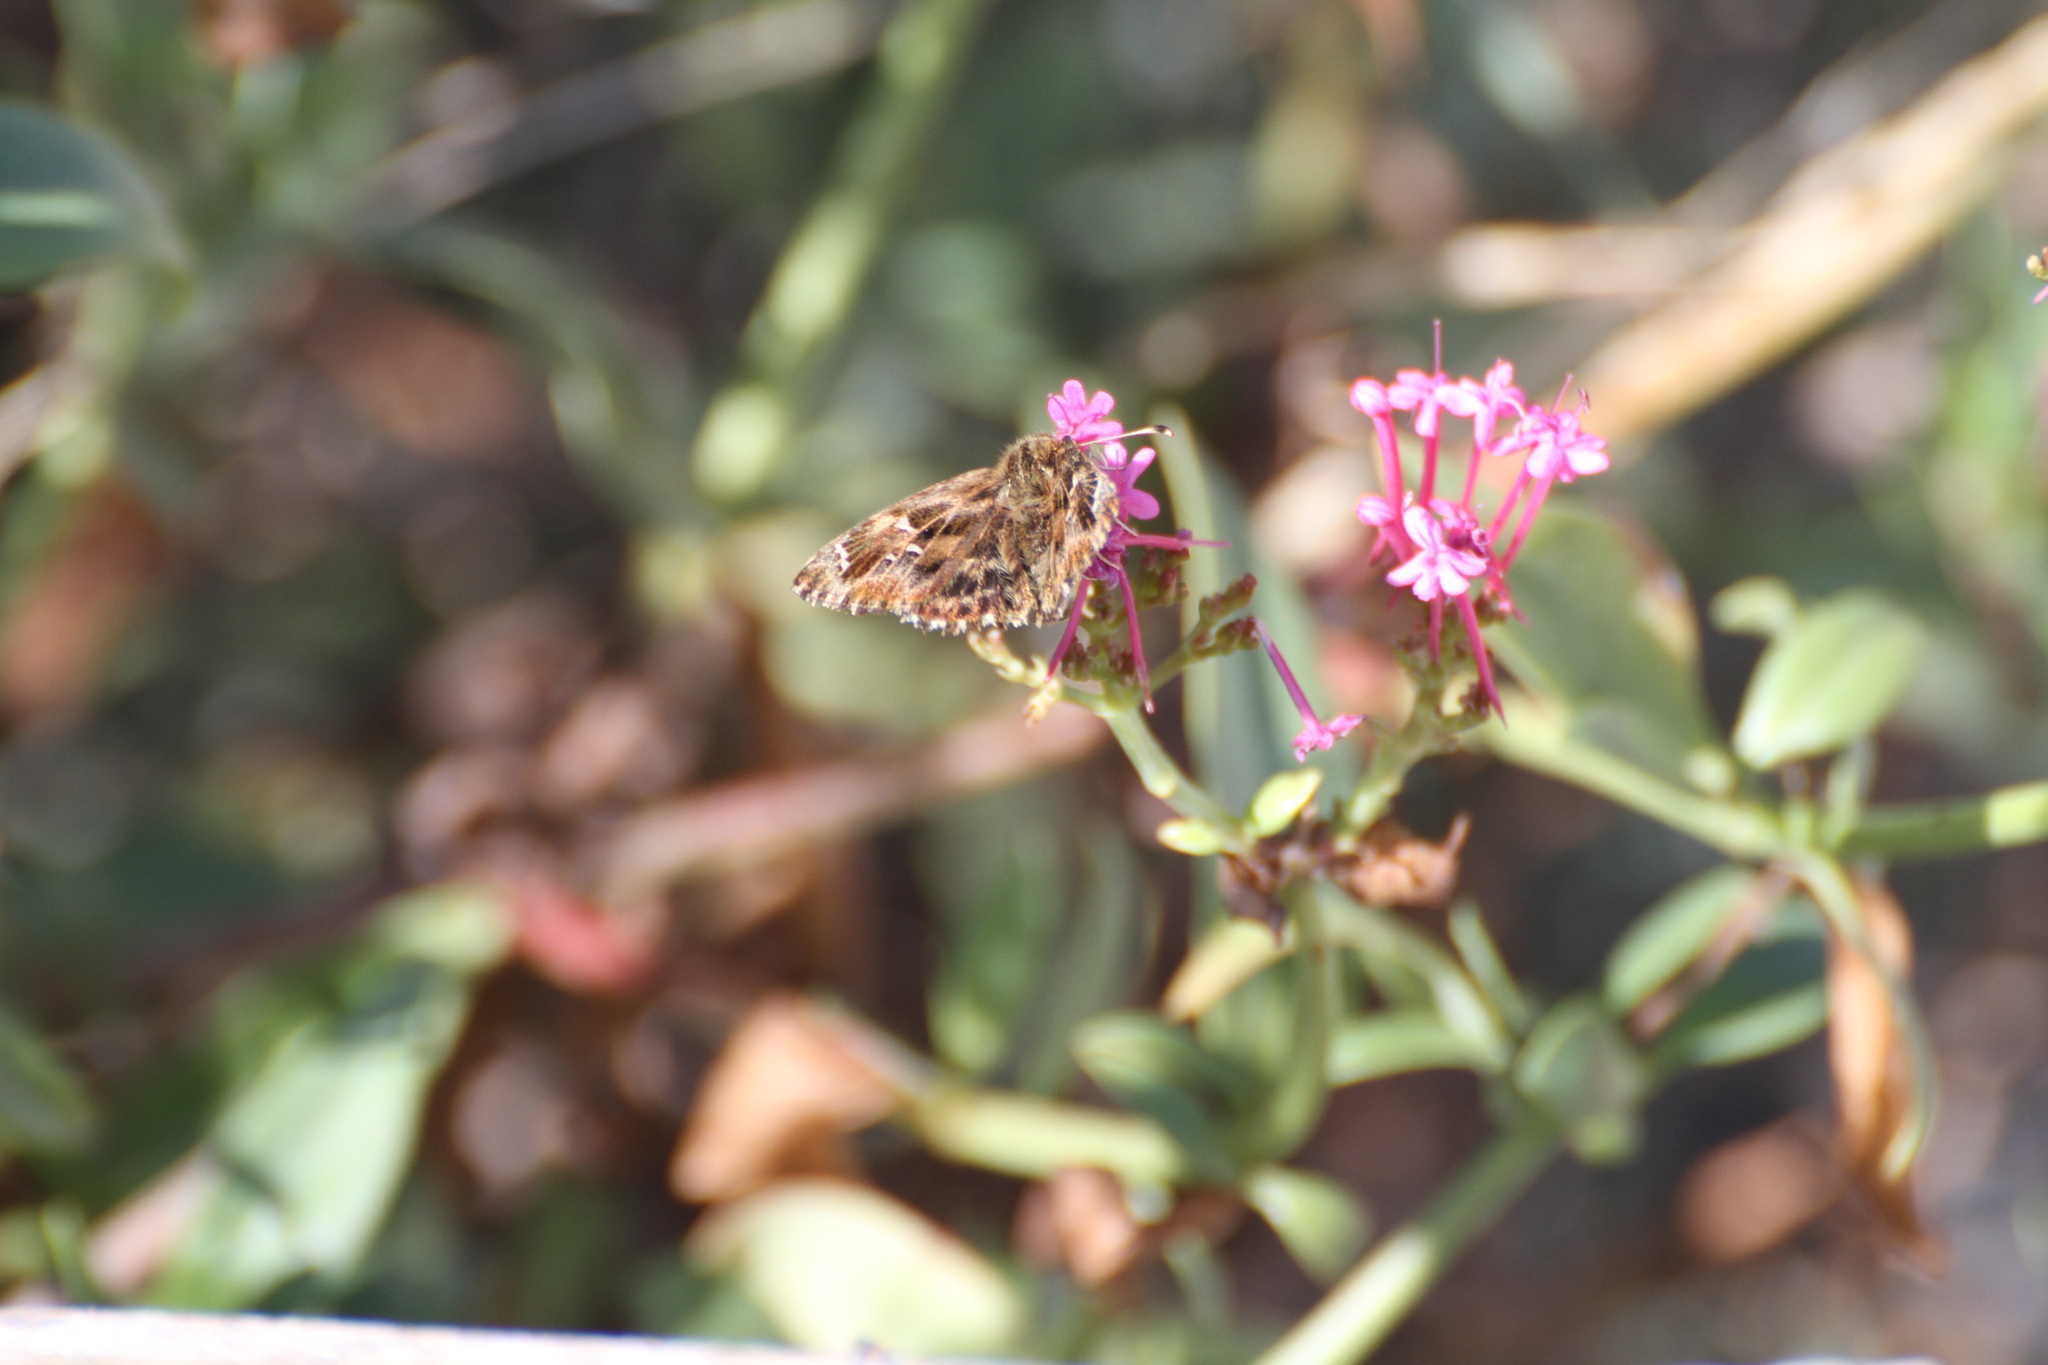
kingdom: Animalia
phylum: Arthropoda
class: Insecta
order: Lepidoptera
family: Hesperiidae
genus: Carcharodus
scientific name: Carcharodus alceae
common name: Mallow skipper
